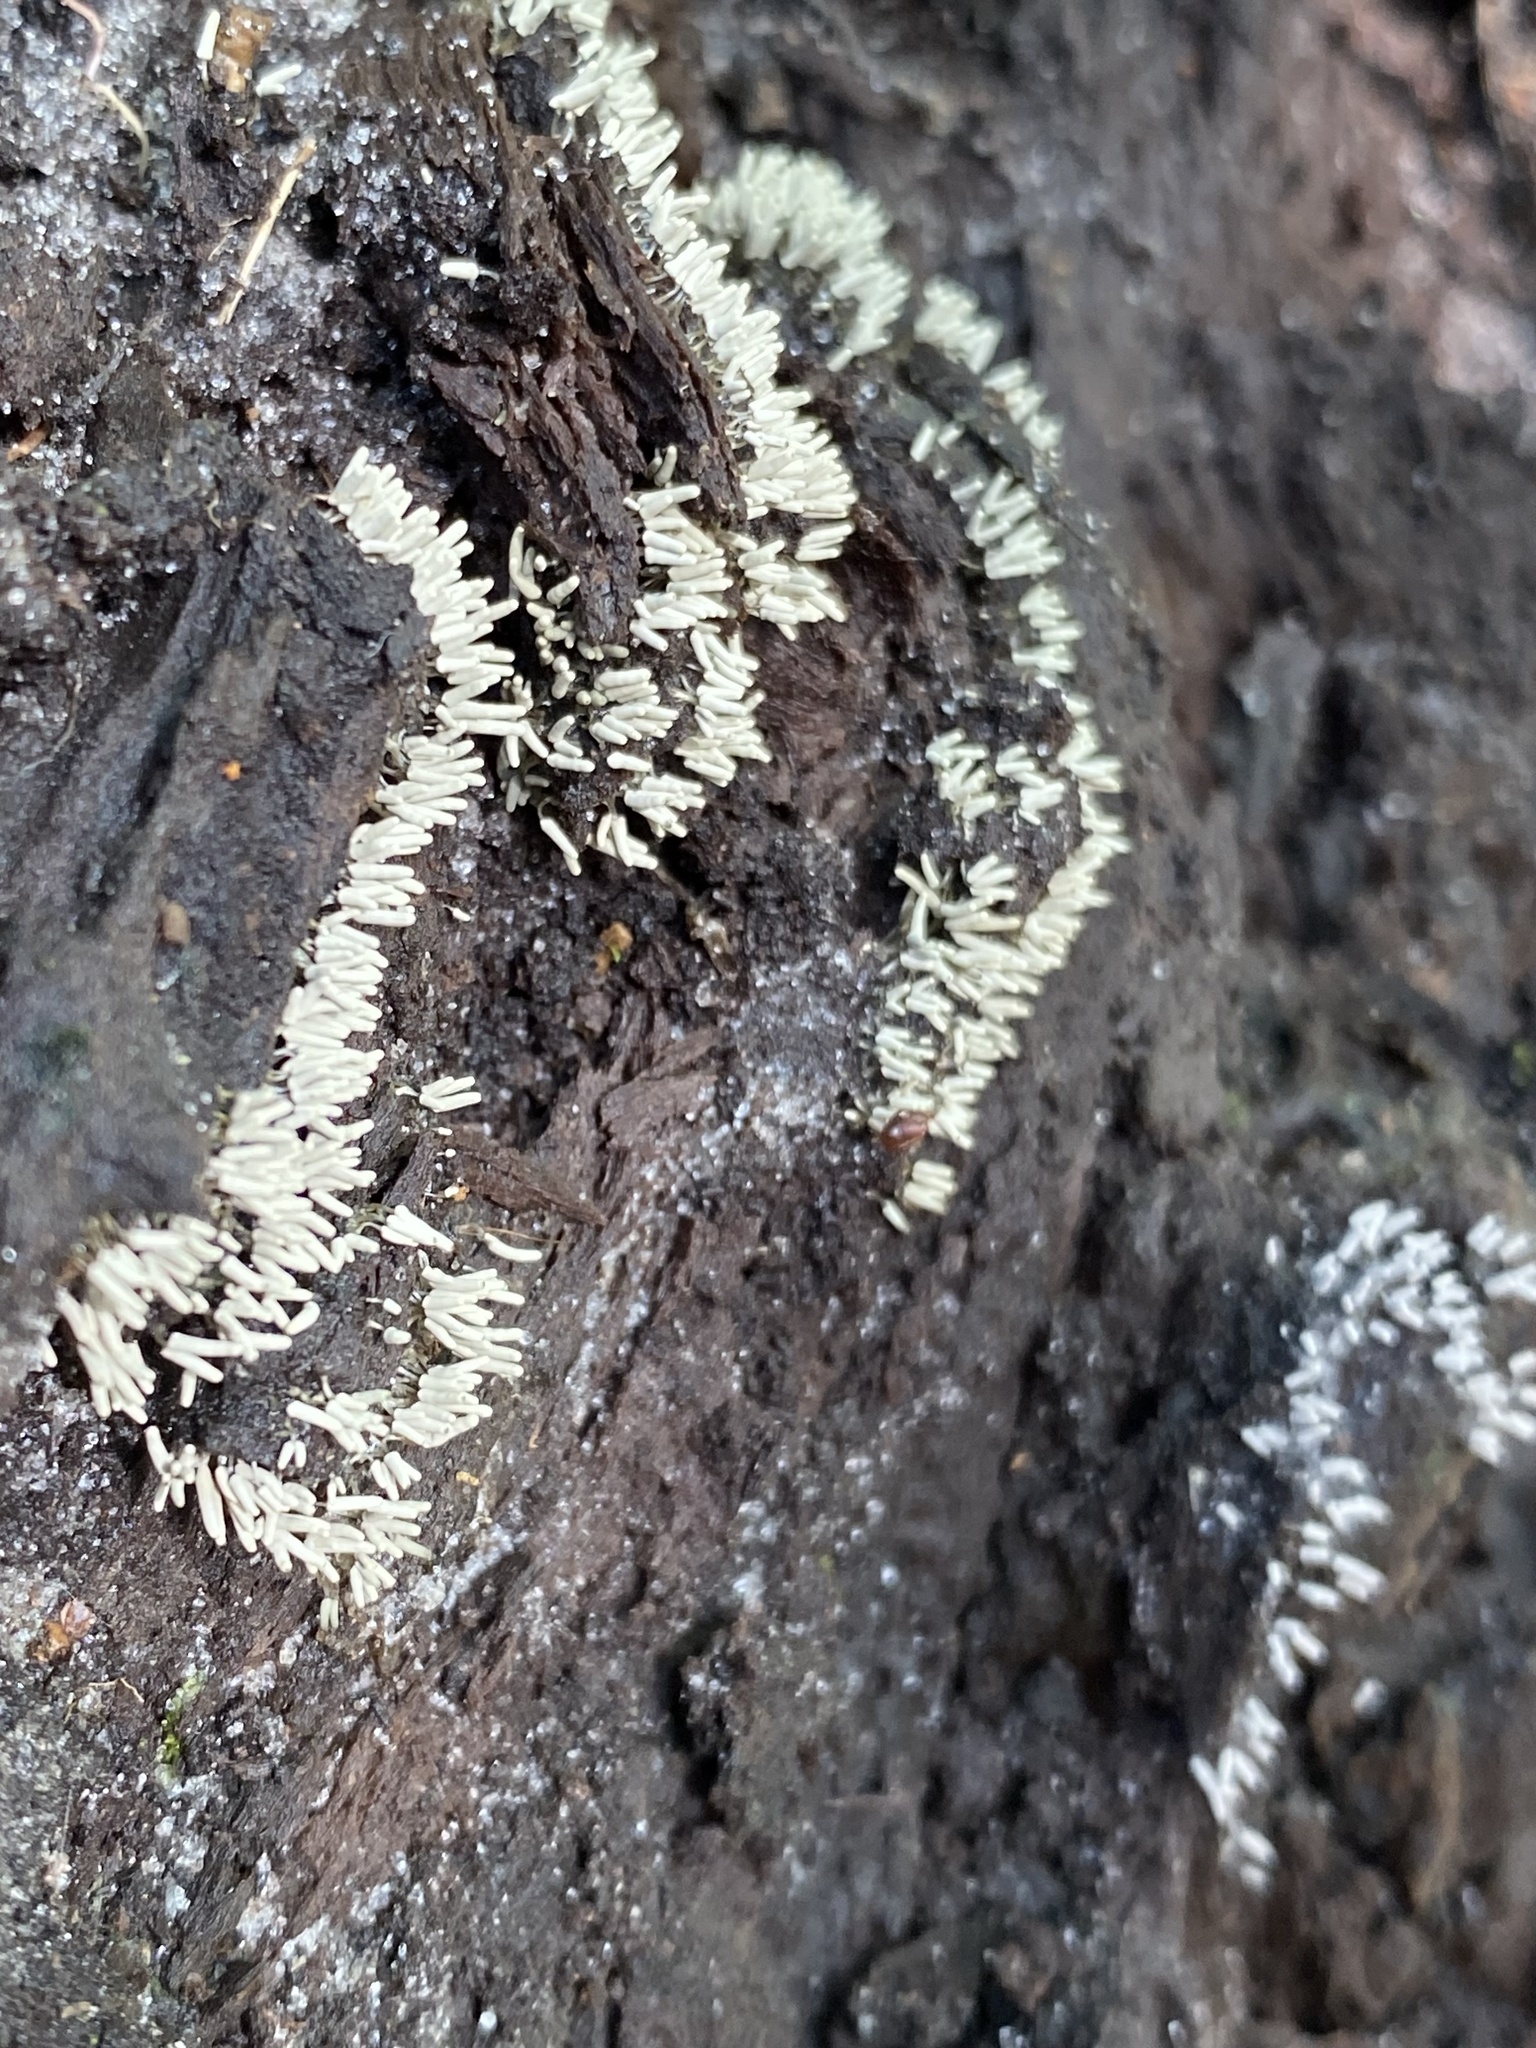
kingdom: Protozoa
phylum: Mycetozoa
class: Myxomycetes
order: Trichiales
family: Arcyriaceae
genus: Arcyria
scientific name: Arcyria cinerea
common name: White carnival candy slime mold
